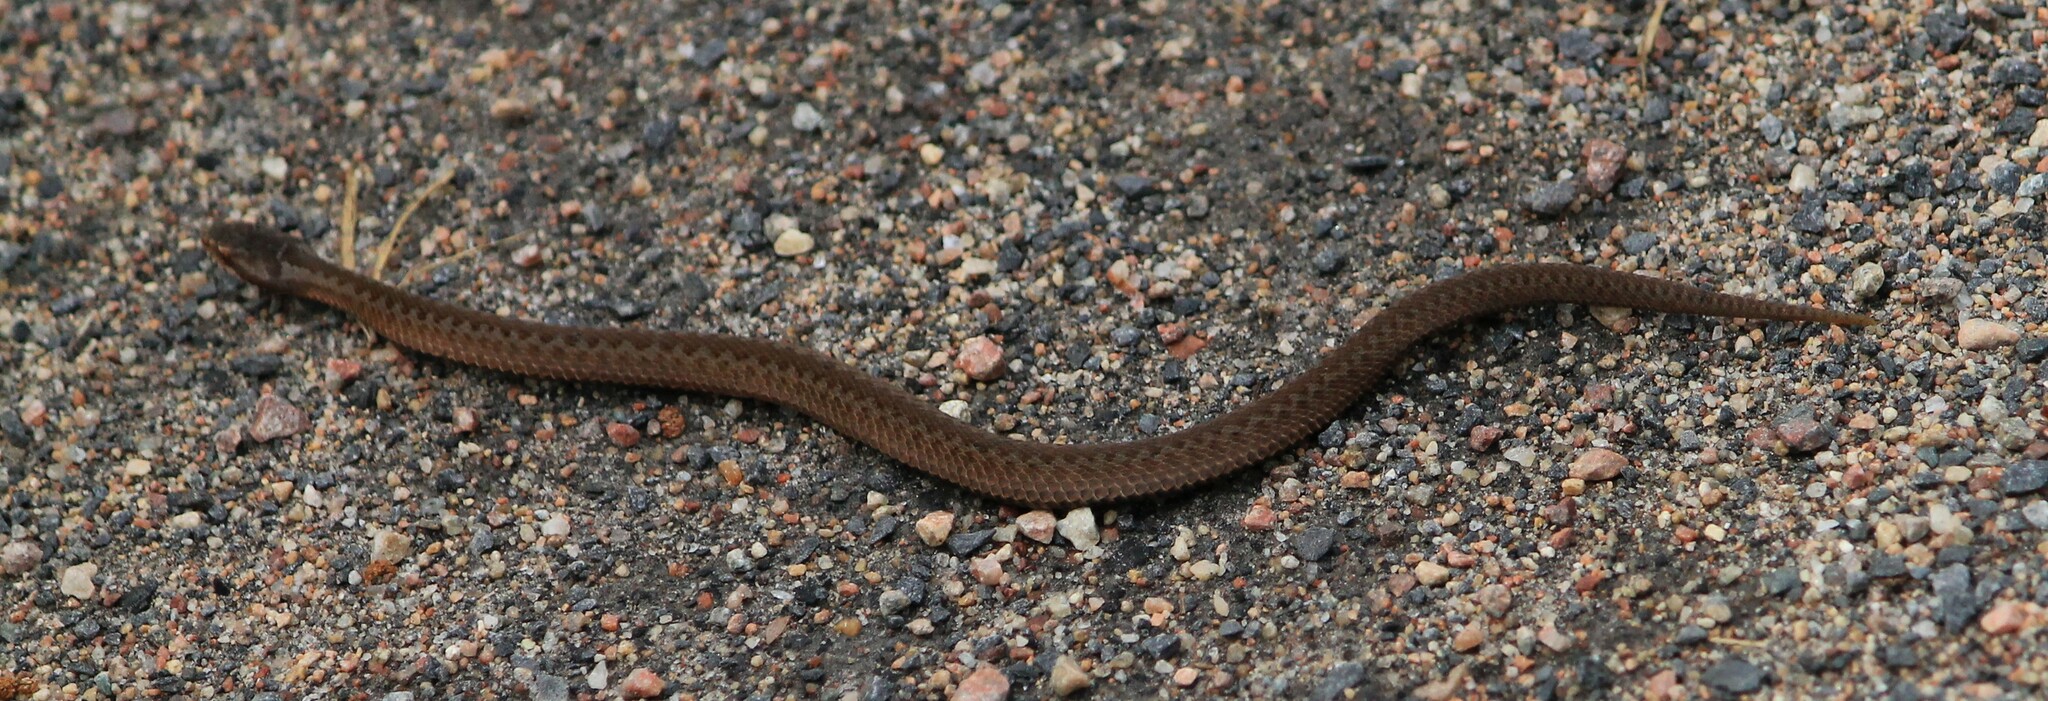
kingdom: Animalia
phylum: Chordata
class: Squamata
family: Viperidae
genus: Vipera
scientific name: Vipera berus
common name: Adder
